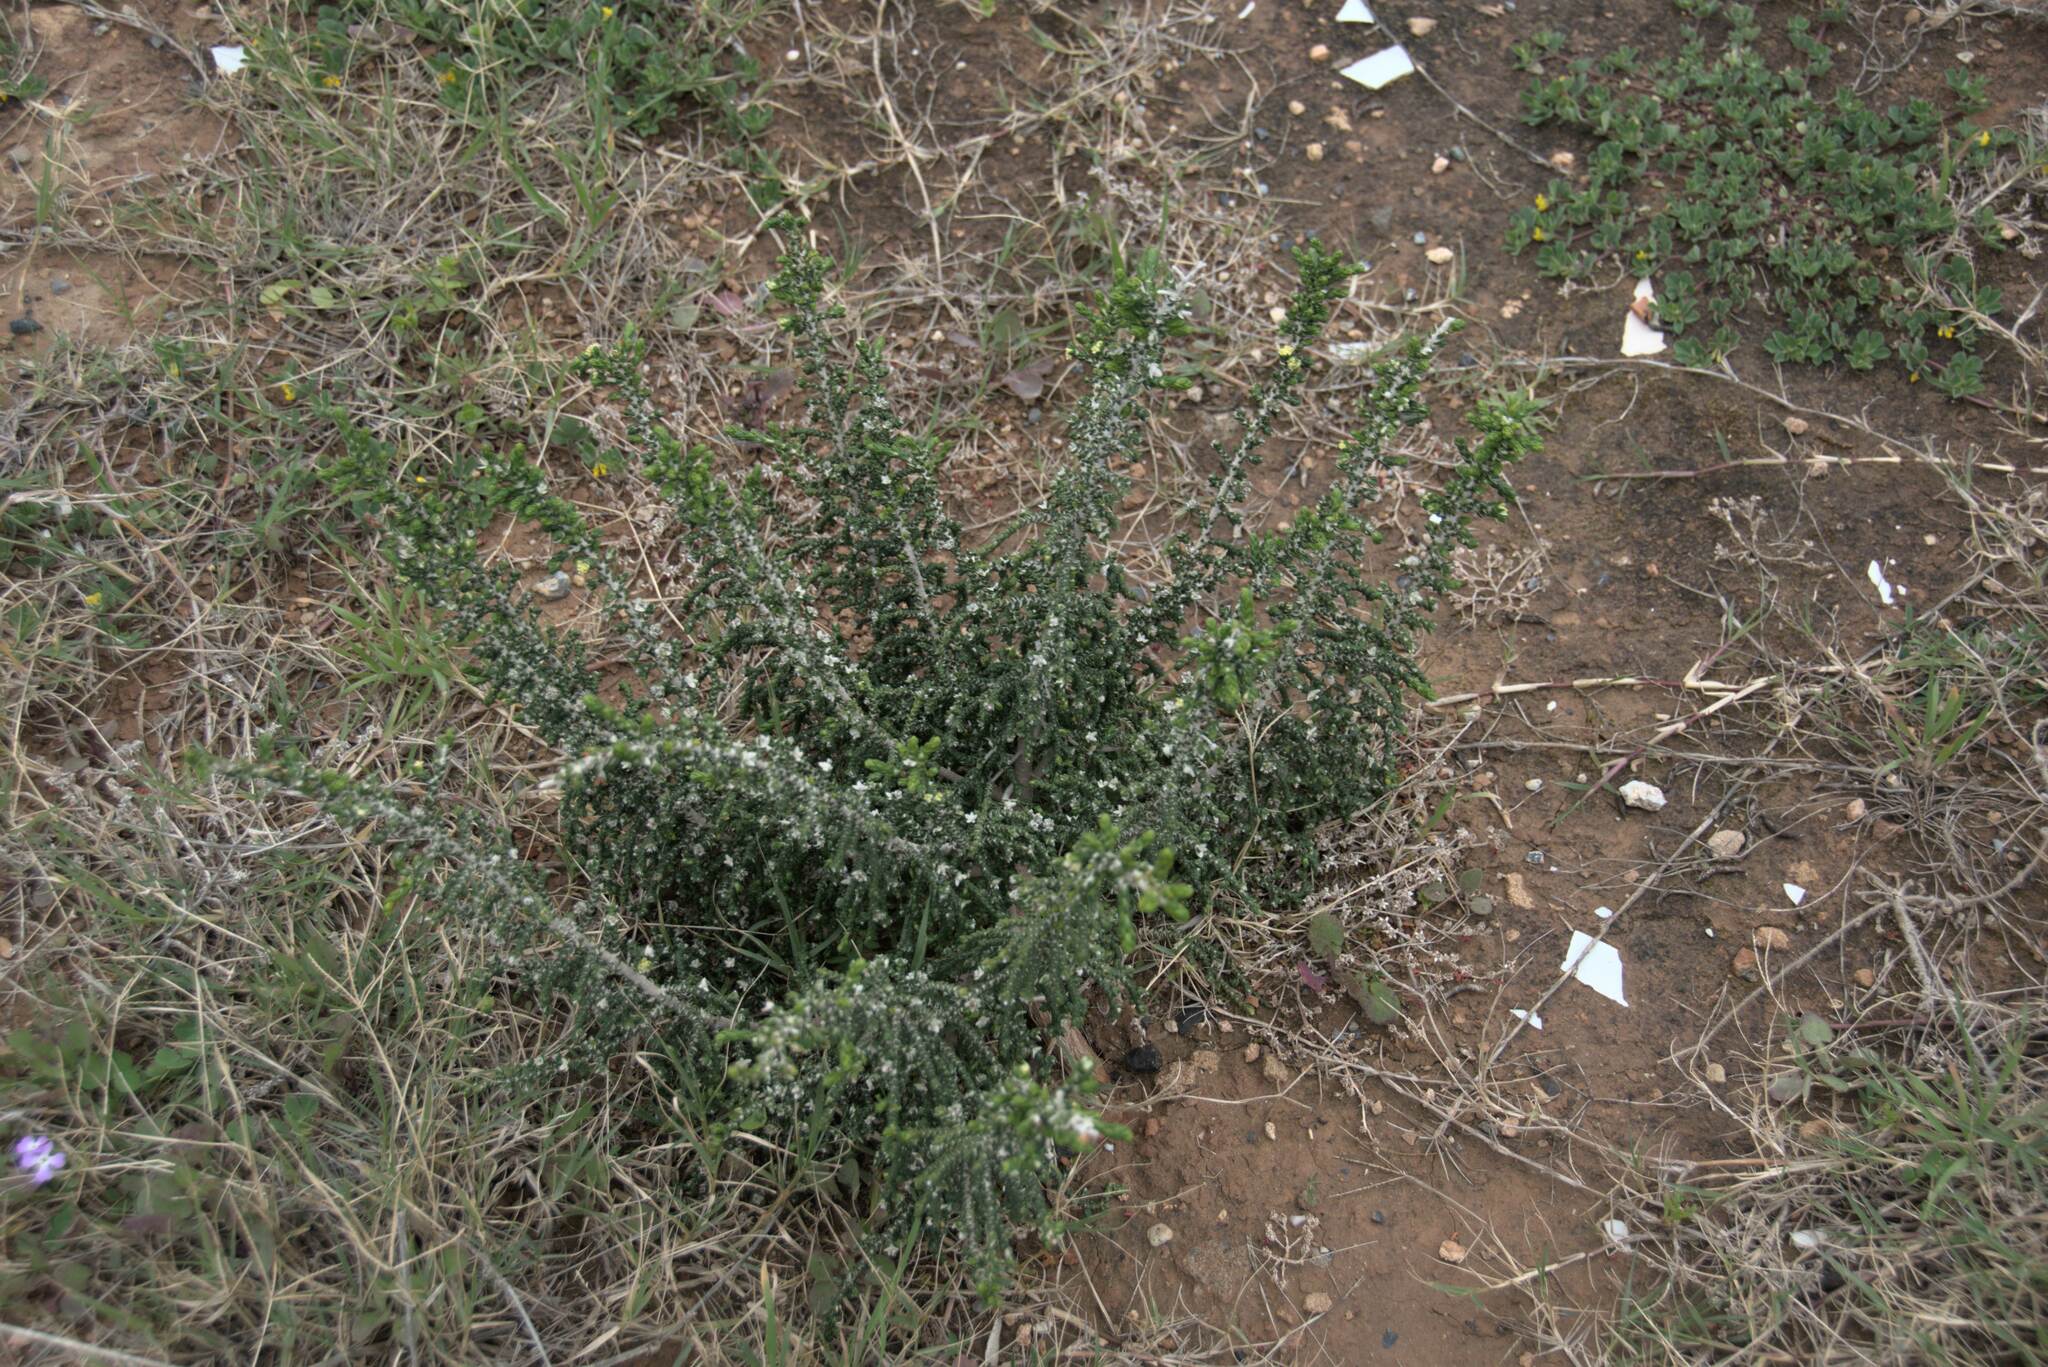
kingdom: Plantae
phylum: Tracheophyta
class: Magnoliopsida
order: Malvales
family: Thymelaeaceae
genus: Thymelaea
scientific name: Thymelaea hirsuta
